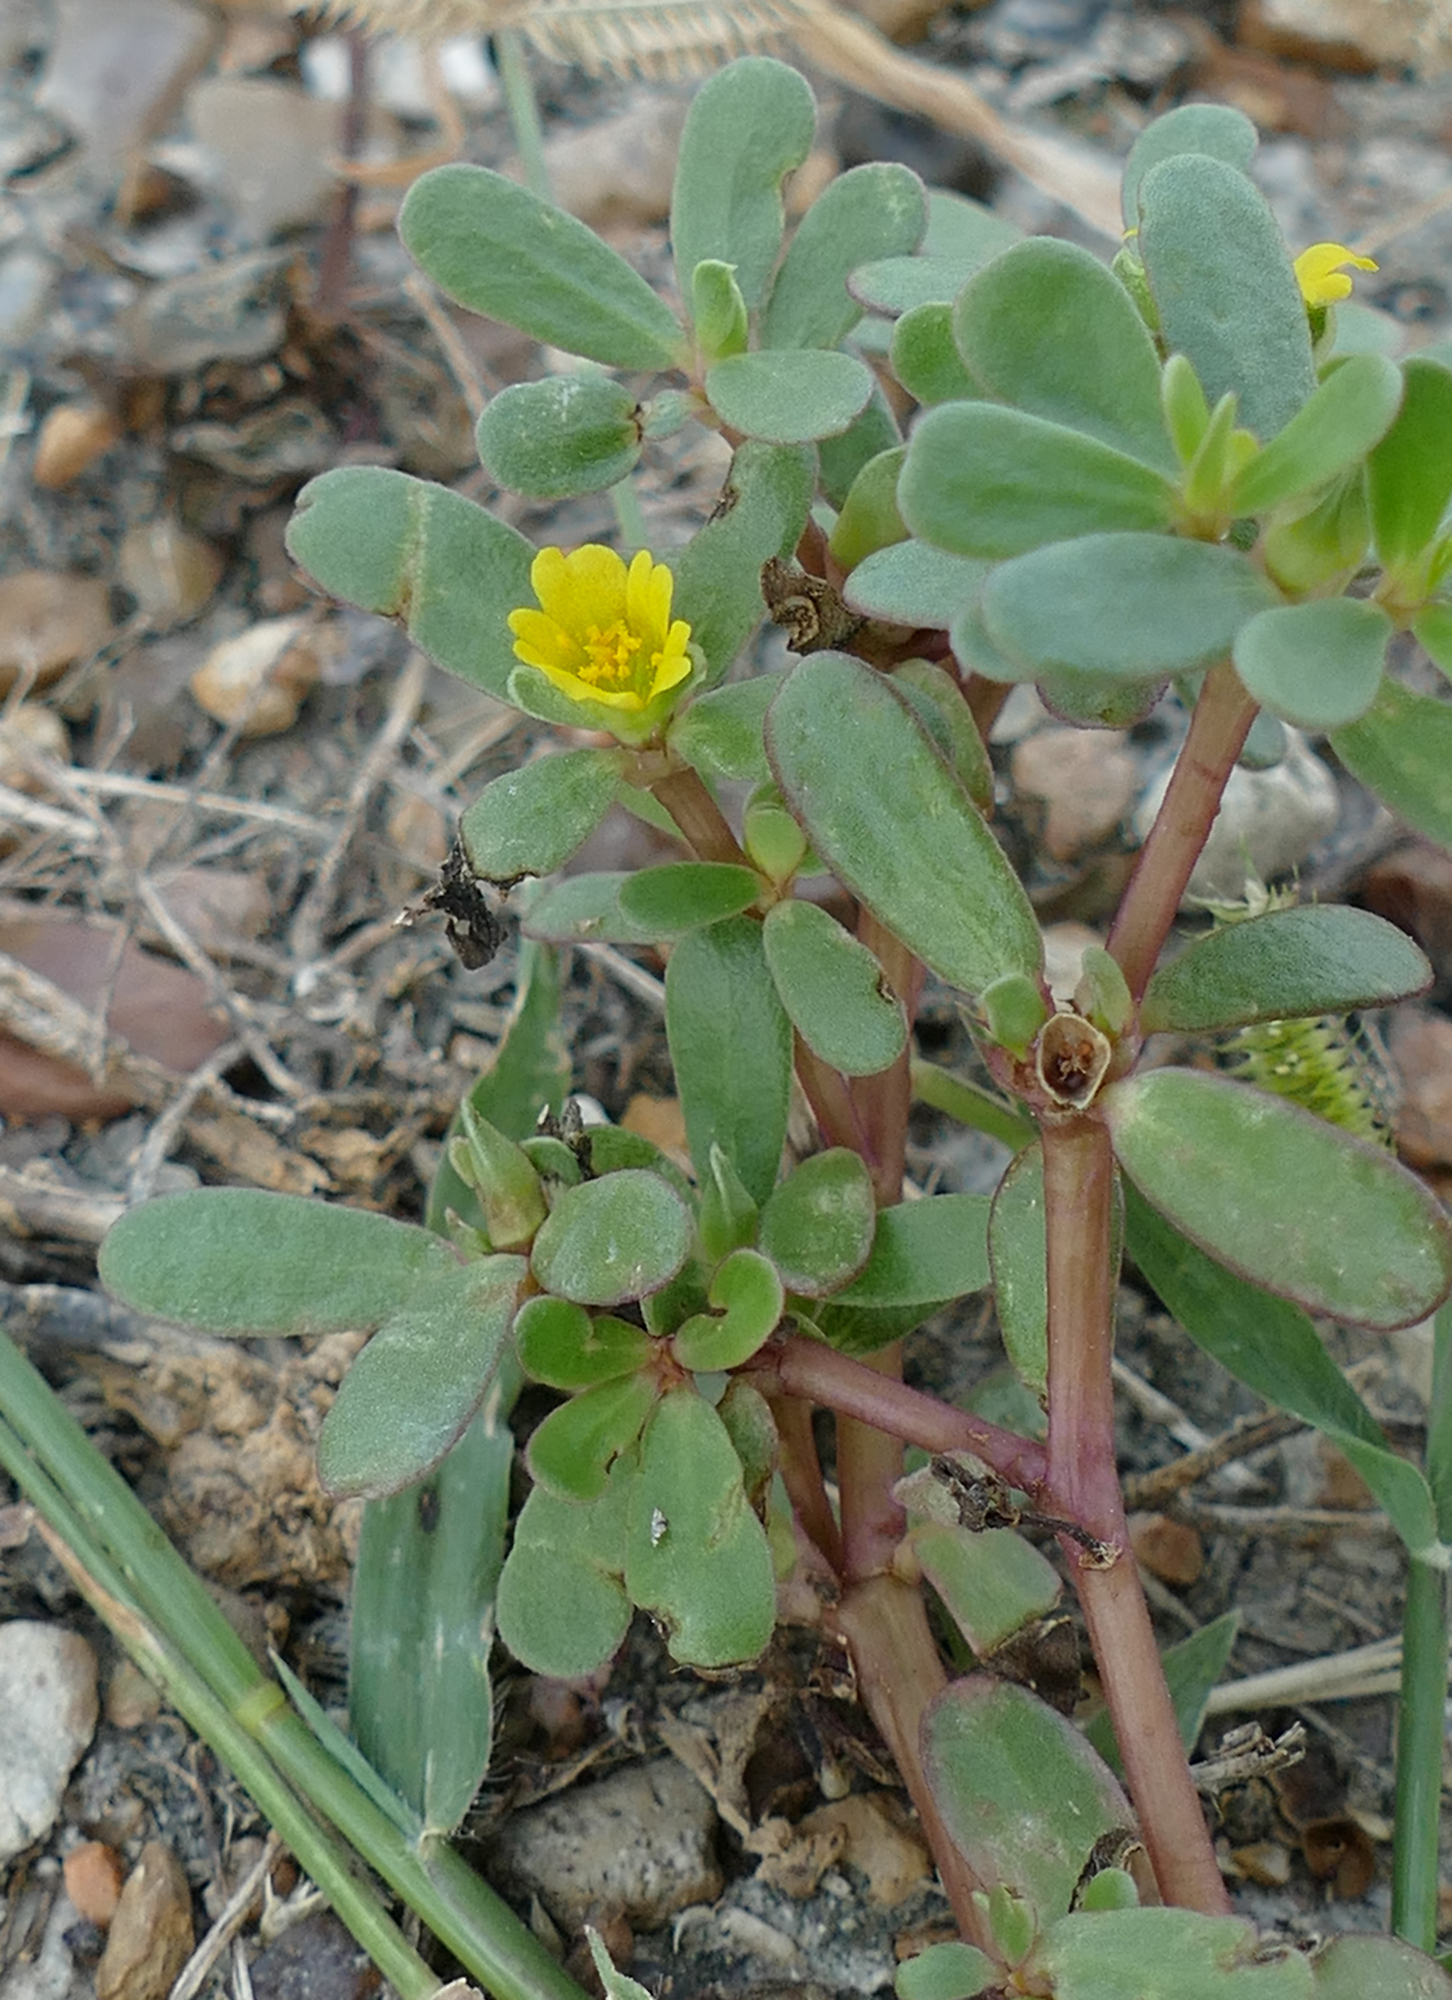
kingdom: Plantae
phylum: Tracheophyta
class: Magnoliopsida
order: Caryophyllales
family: Portulacaceae
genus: Portulaca
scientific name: Portulaca oleracea
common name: Common purslane
